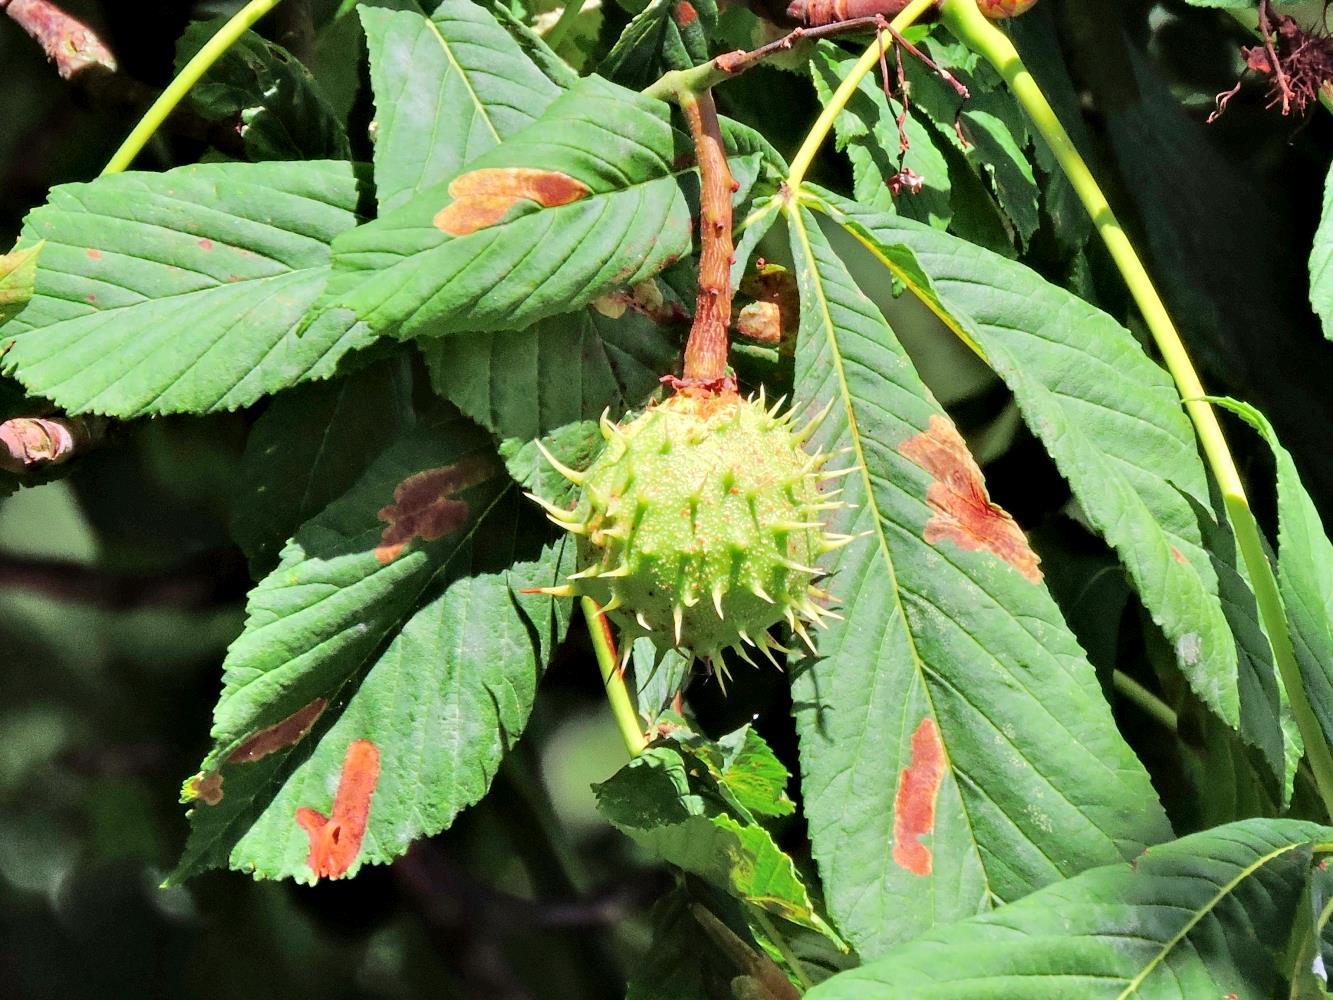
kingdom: Plantae
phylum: Tracheophyta
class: Magnoliopsida
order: Sapindales
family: Sapindaceae
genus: Aesculus
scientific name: Aesculus hippocastanum
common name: Horse-chestnut
